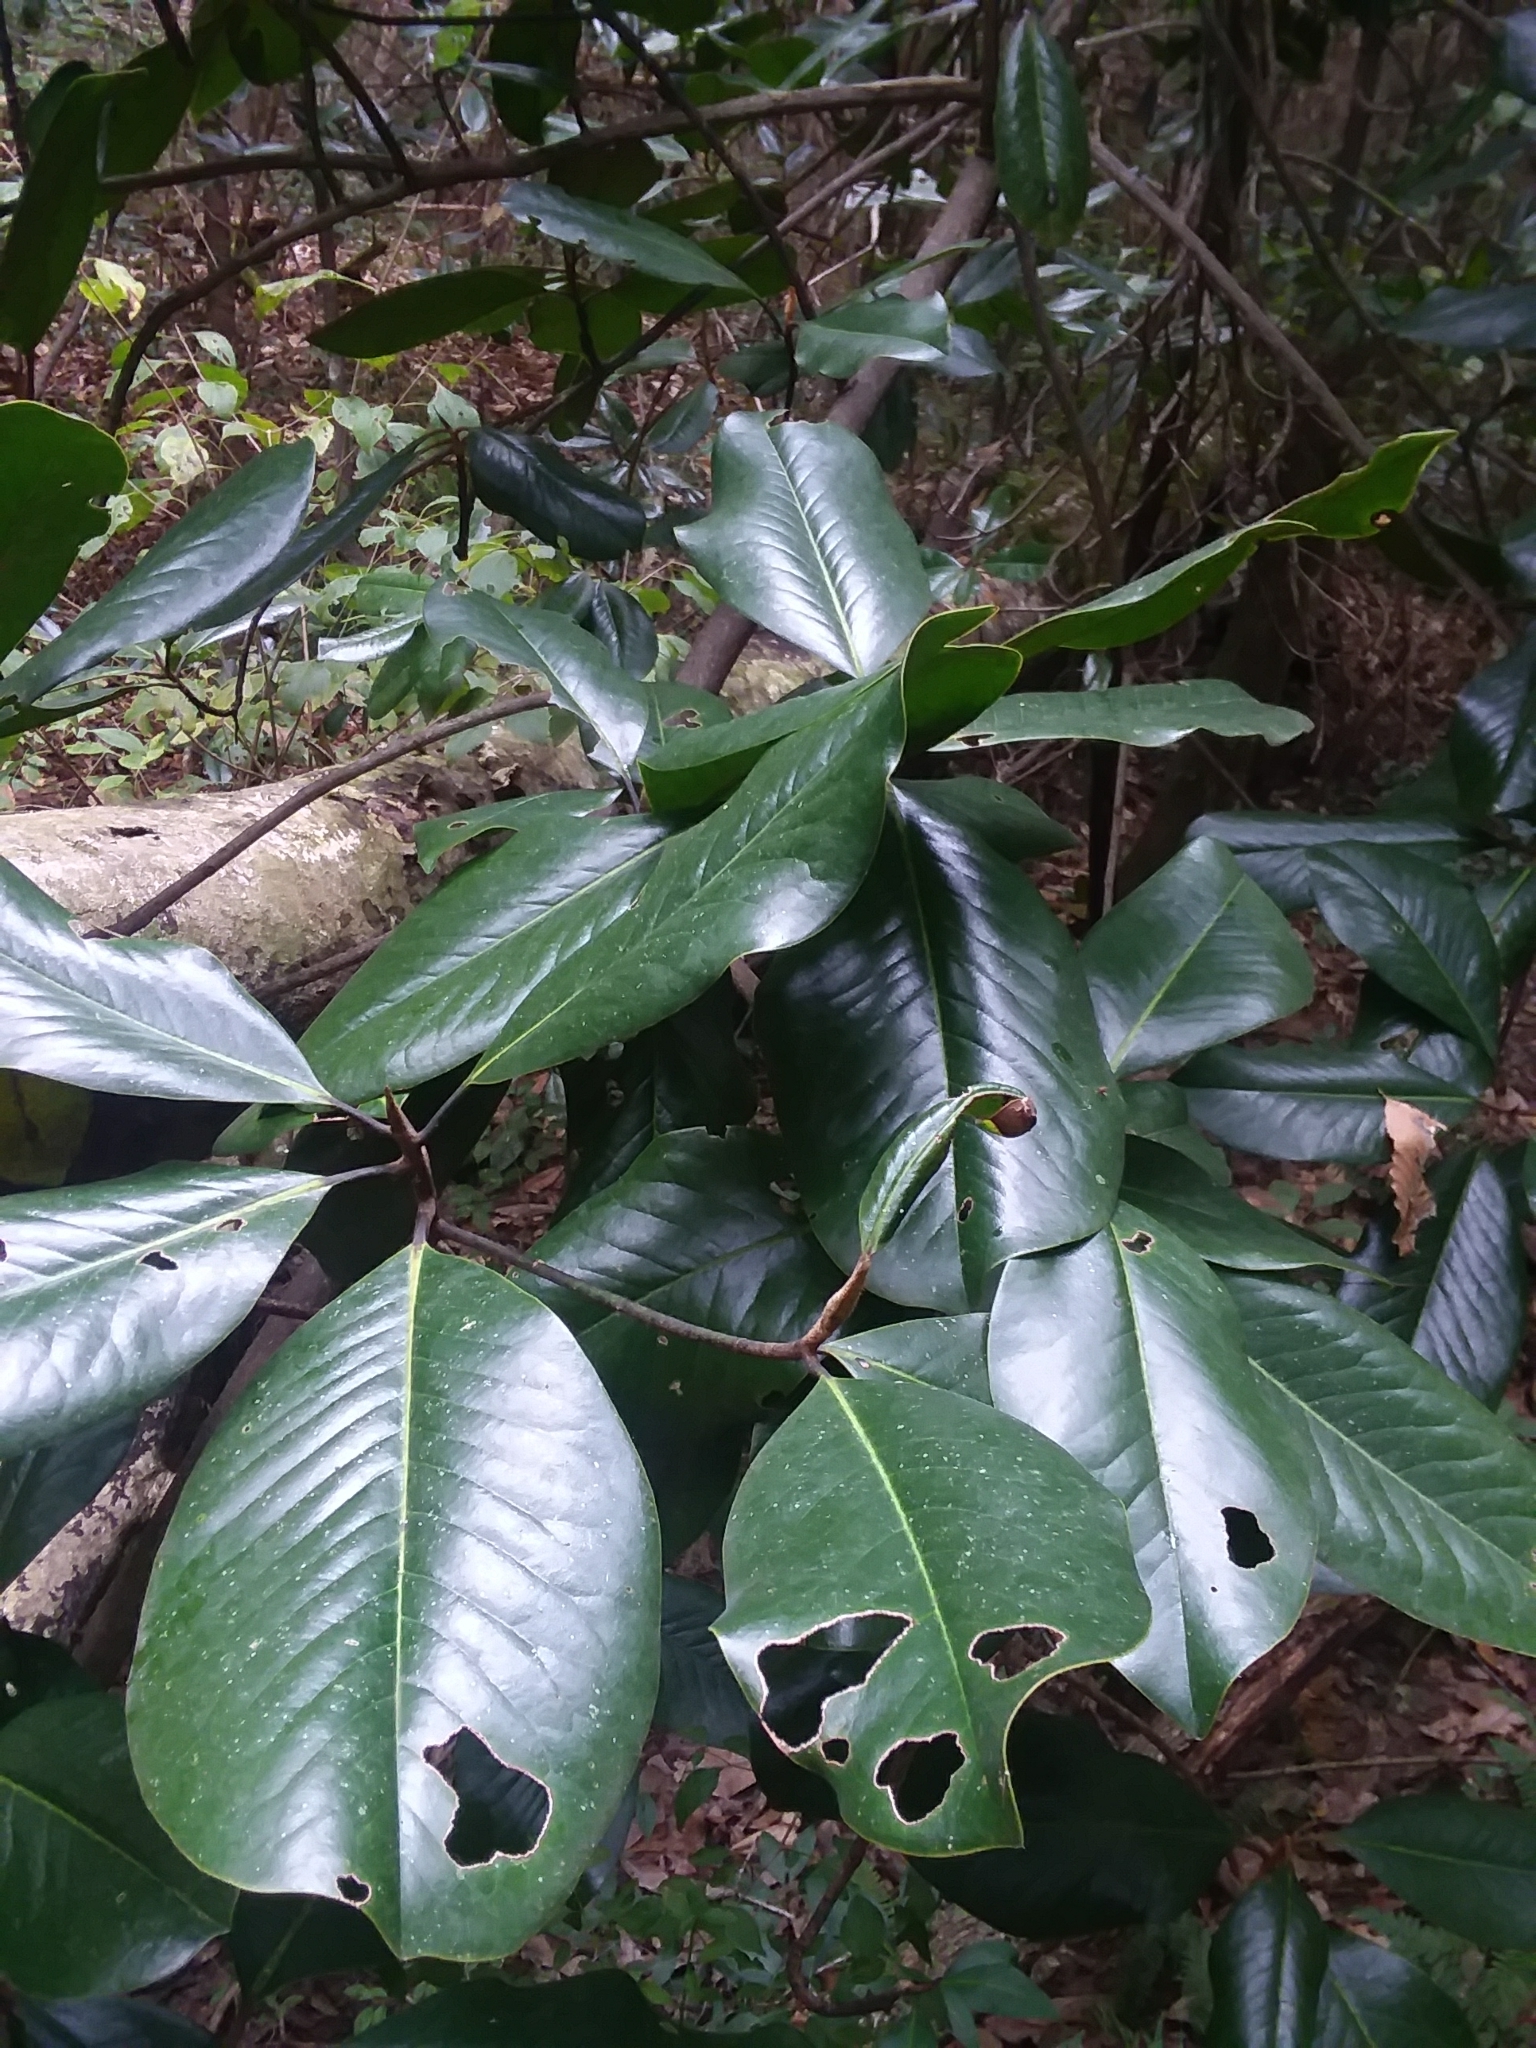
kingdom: Plantae
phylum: Tracheophyta
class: Magnoliopsida
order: Magnoliales
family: Magnoliaceae
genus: Magnolia
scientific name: Magnolia grandiflora
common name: Southern magnolia
